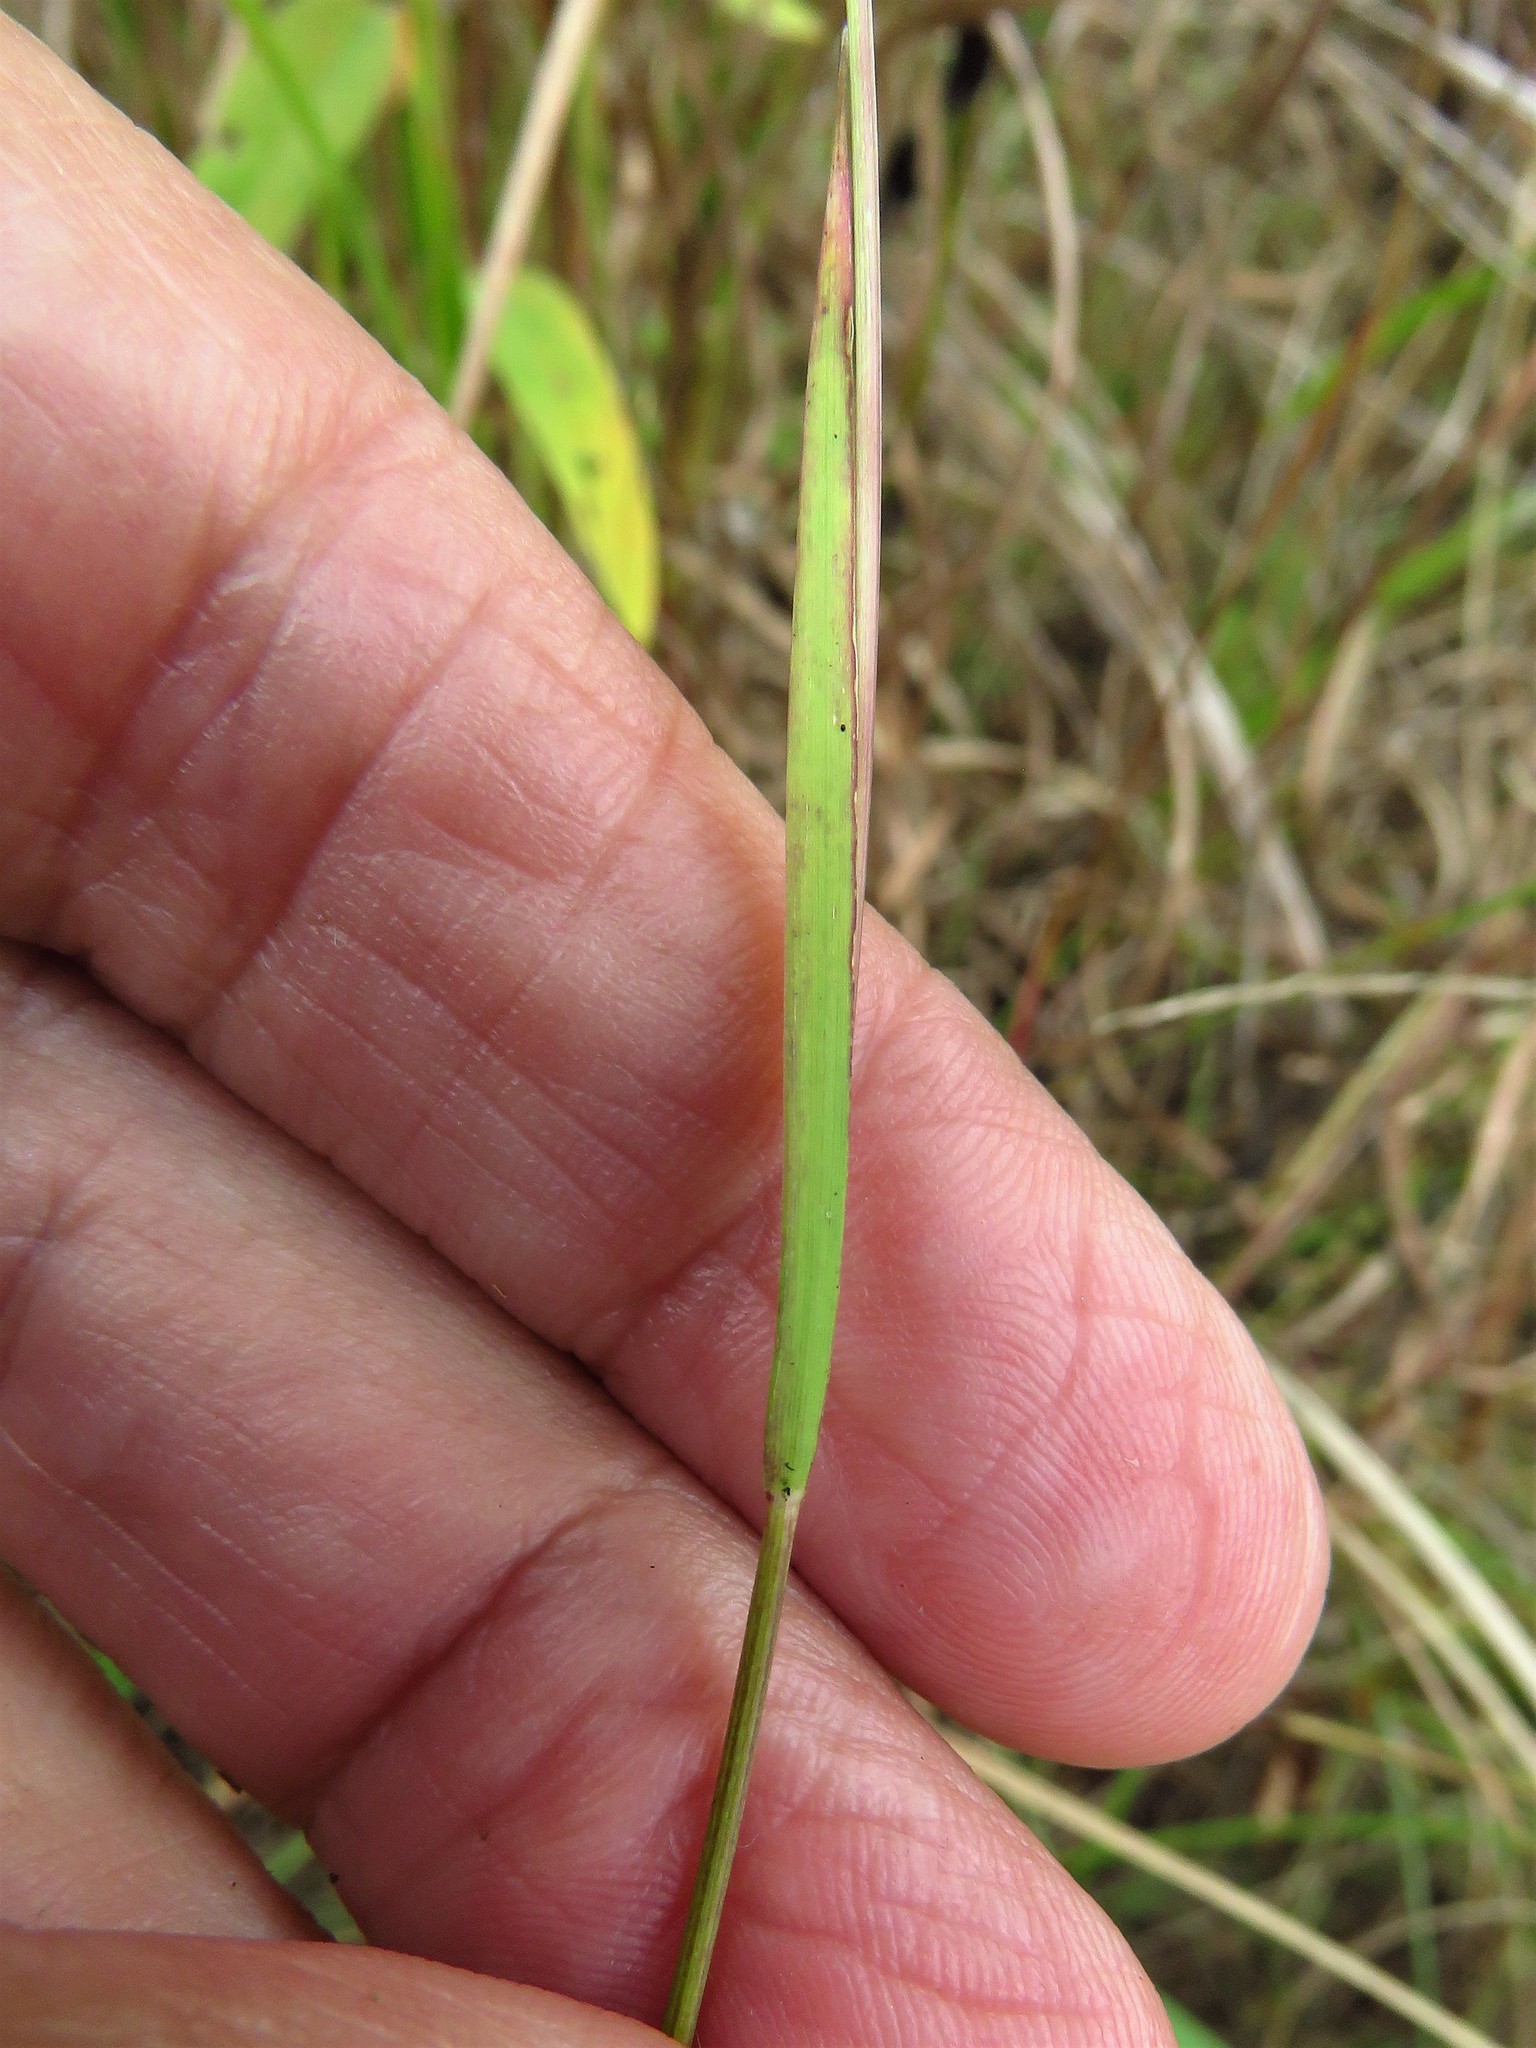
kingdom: Plantae
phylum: Tracheophyta
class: Liliopsida
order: Poales
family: Poaceae
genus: Kellochloa
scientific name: Kellochloa brachyantha
